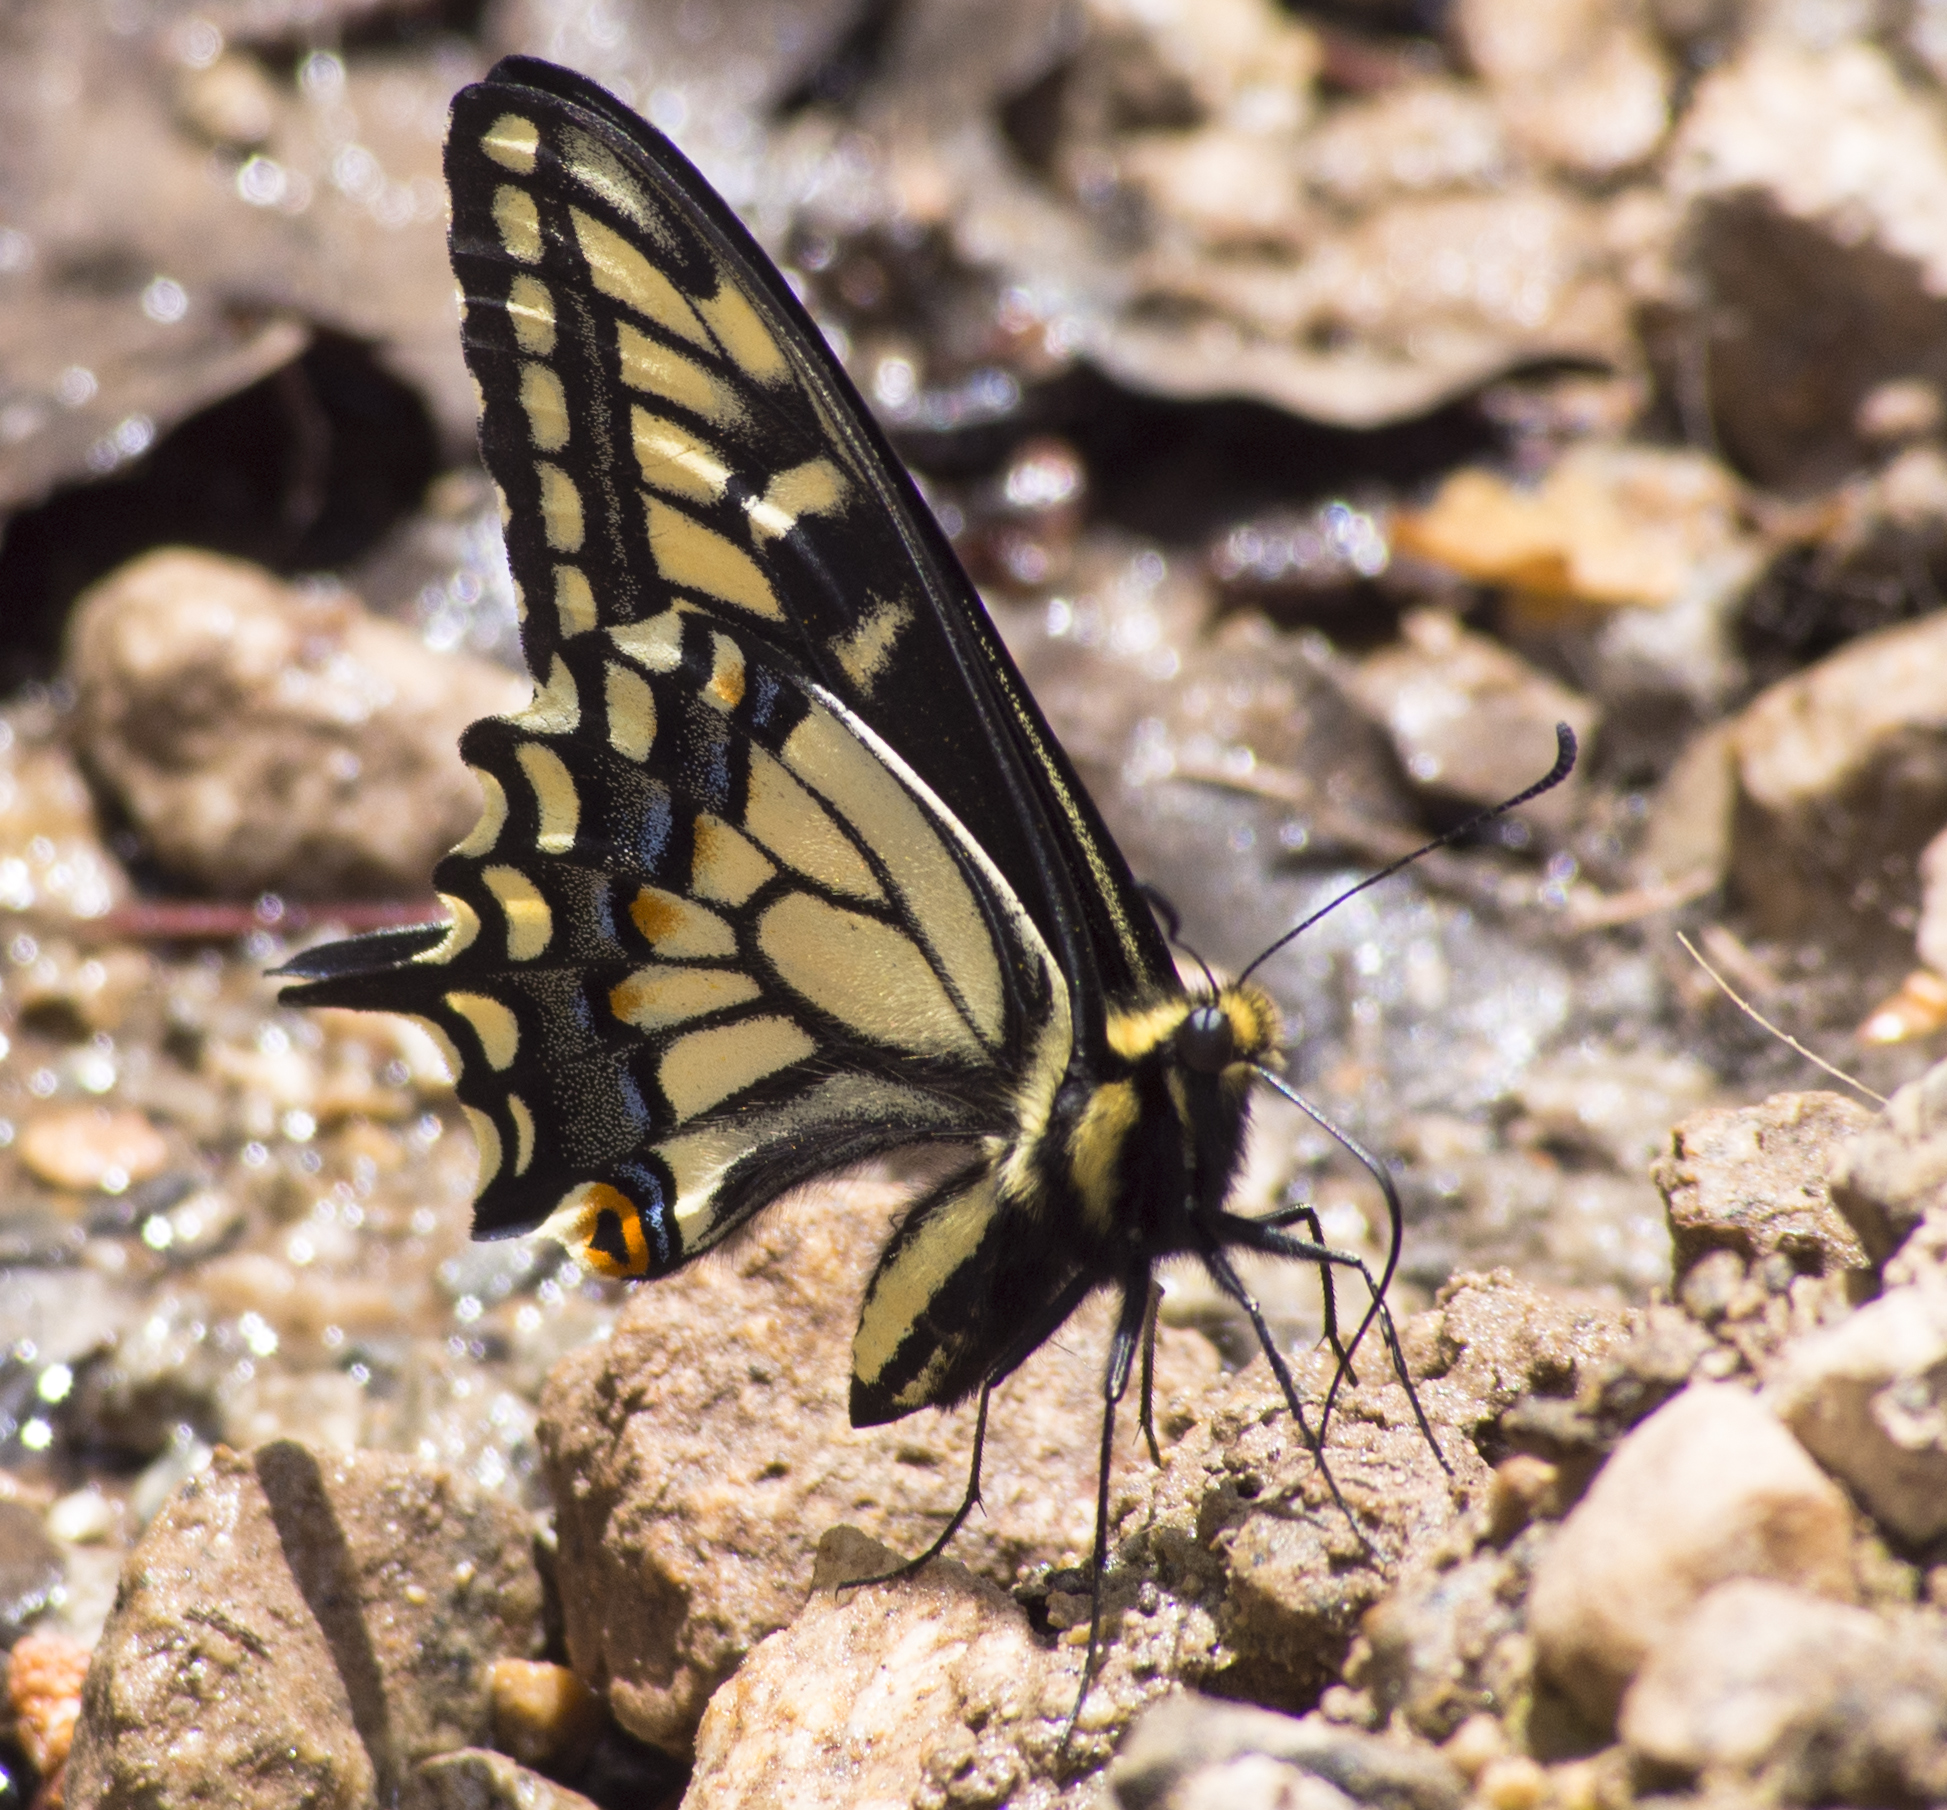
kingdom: Animalia
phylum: Arthropoda
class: Insecta
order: Lepidoptera
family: Papilionidae
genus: Papilio
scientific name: Papilio zelicaon
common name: Anise swallowtail
